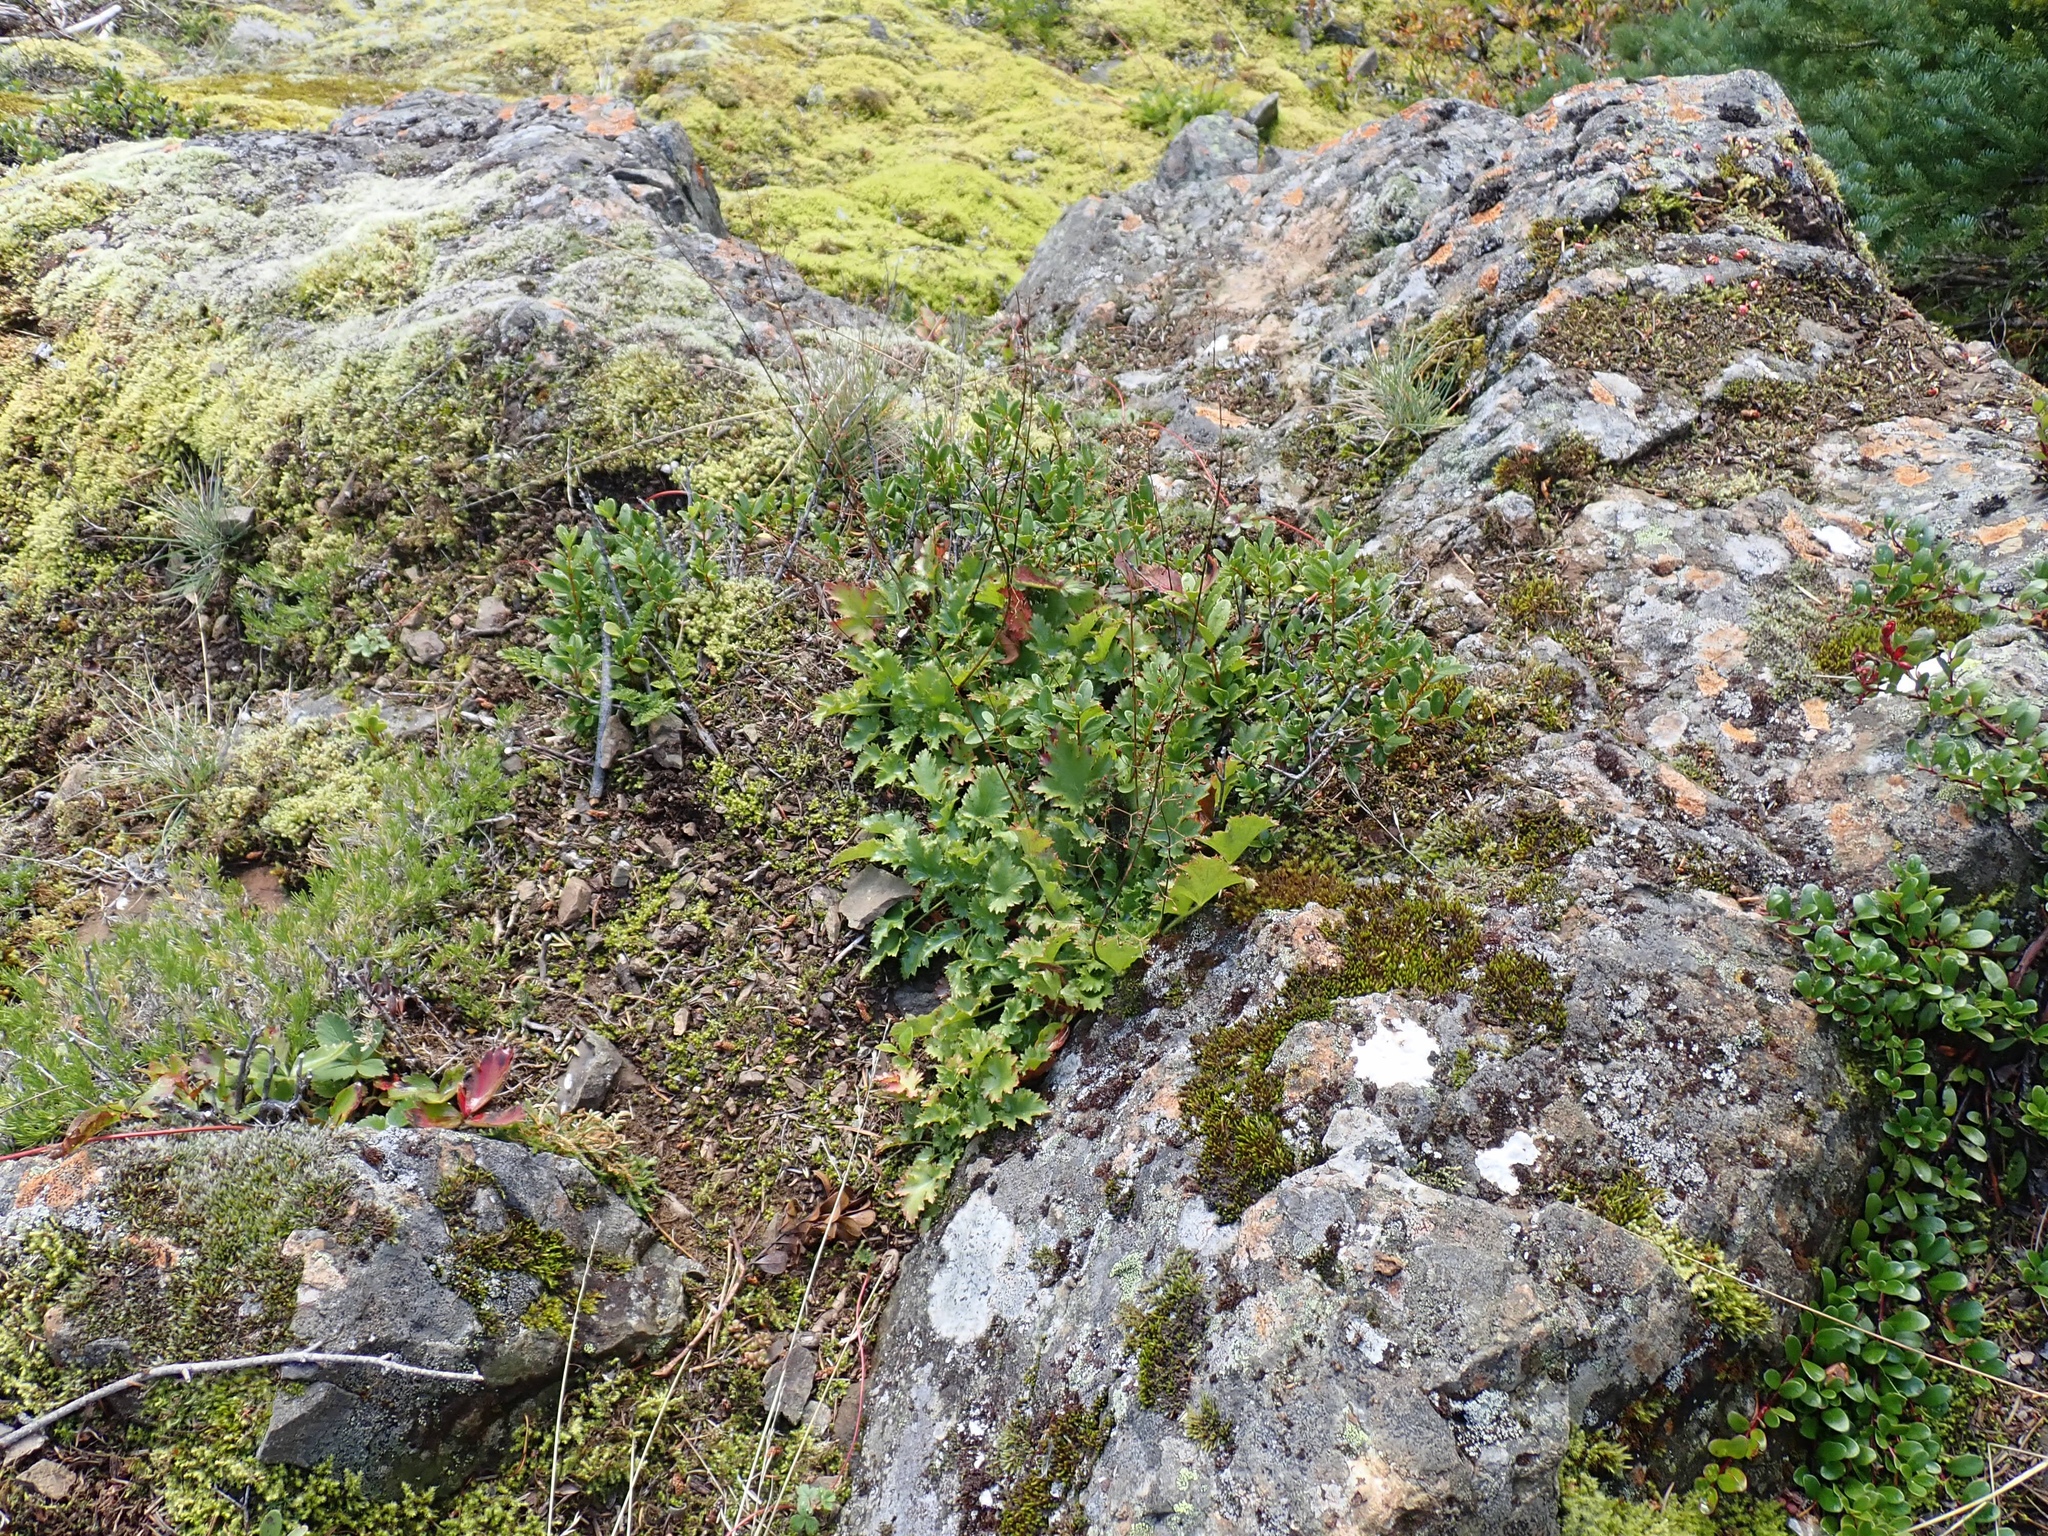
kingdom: Plantae
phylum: Tracheophyta
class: Magnoliopsida
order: Saxifragales
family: Saxifragaceae
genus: Heuchera
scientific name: Heuchera micrantha
